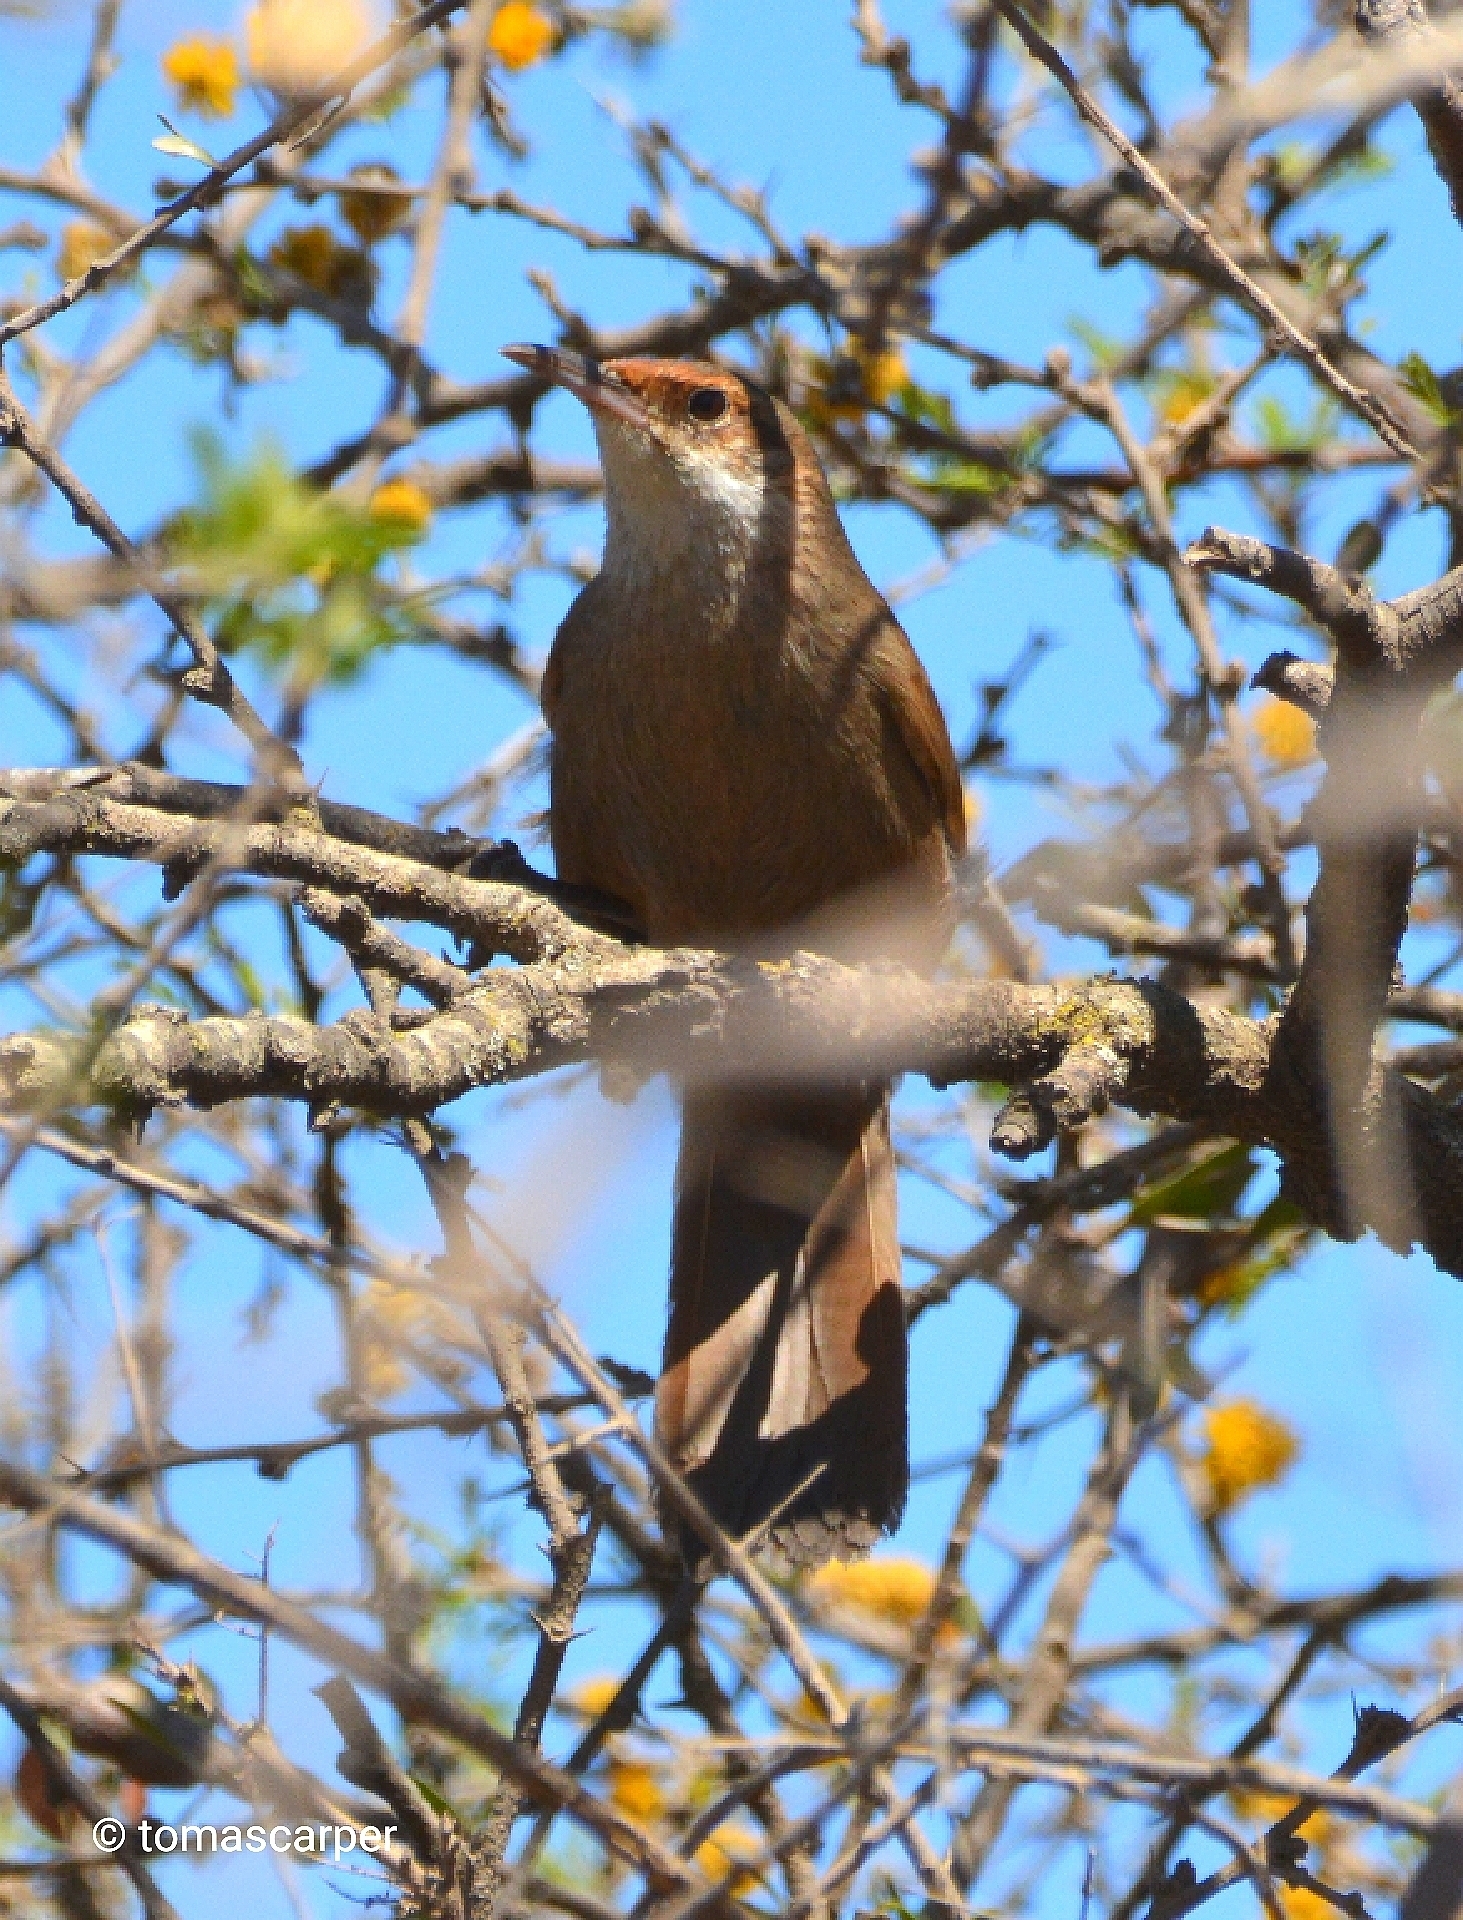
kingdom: Animalia
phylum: Chordata
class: Aves
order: Passeriformes
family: Furnariidae
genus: Upucerthia
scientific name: Upucerthia certhioides
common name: Chaco earthcreeper
